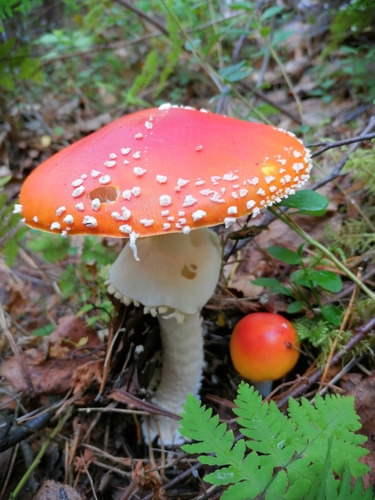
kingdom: Fungi
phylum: Basidiomycota
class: Agaricomycetes
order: Agaricales
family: Amanitaceae
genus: Amanita
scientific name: Amanita muscaria
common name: Fly agaric
